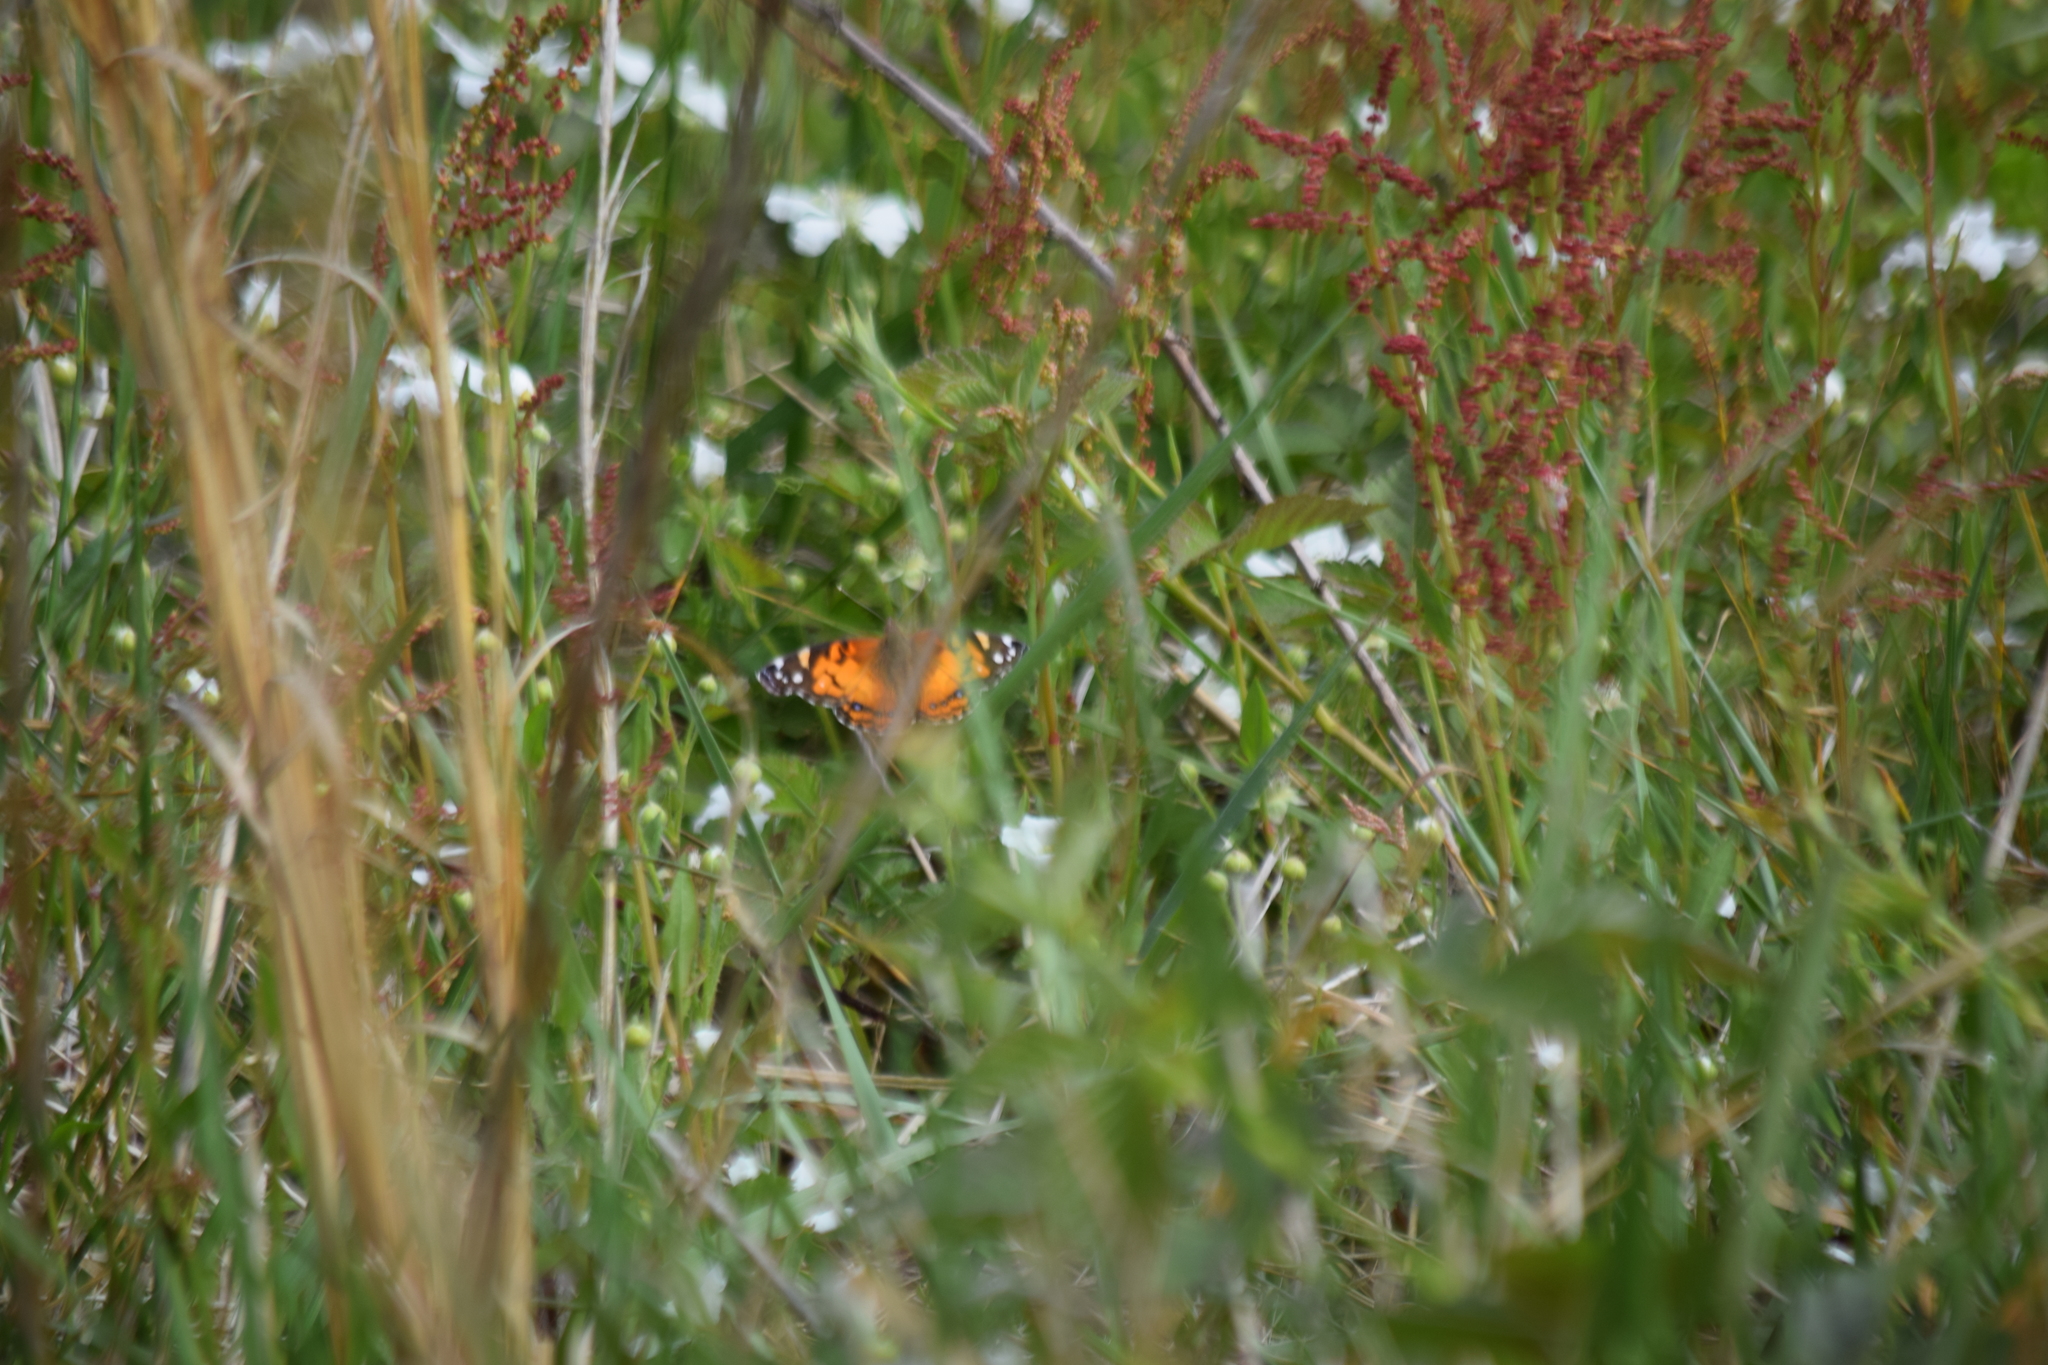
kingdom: Animalia
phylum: Arthropoda
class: Insecta
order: Lepidoptera
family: Nymphalidae
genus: Vanessa
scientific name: Vanessa virginiensis
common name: American lady
